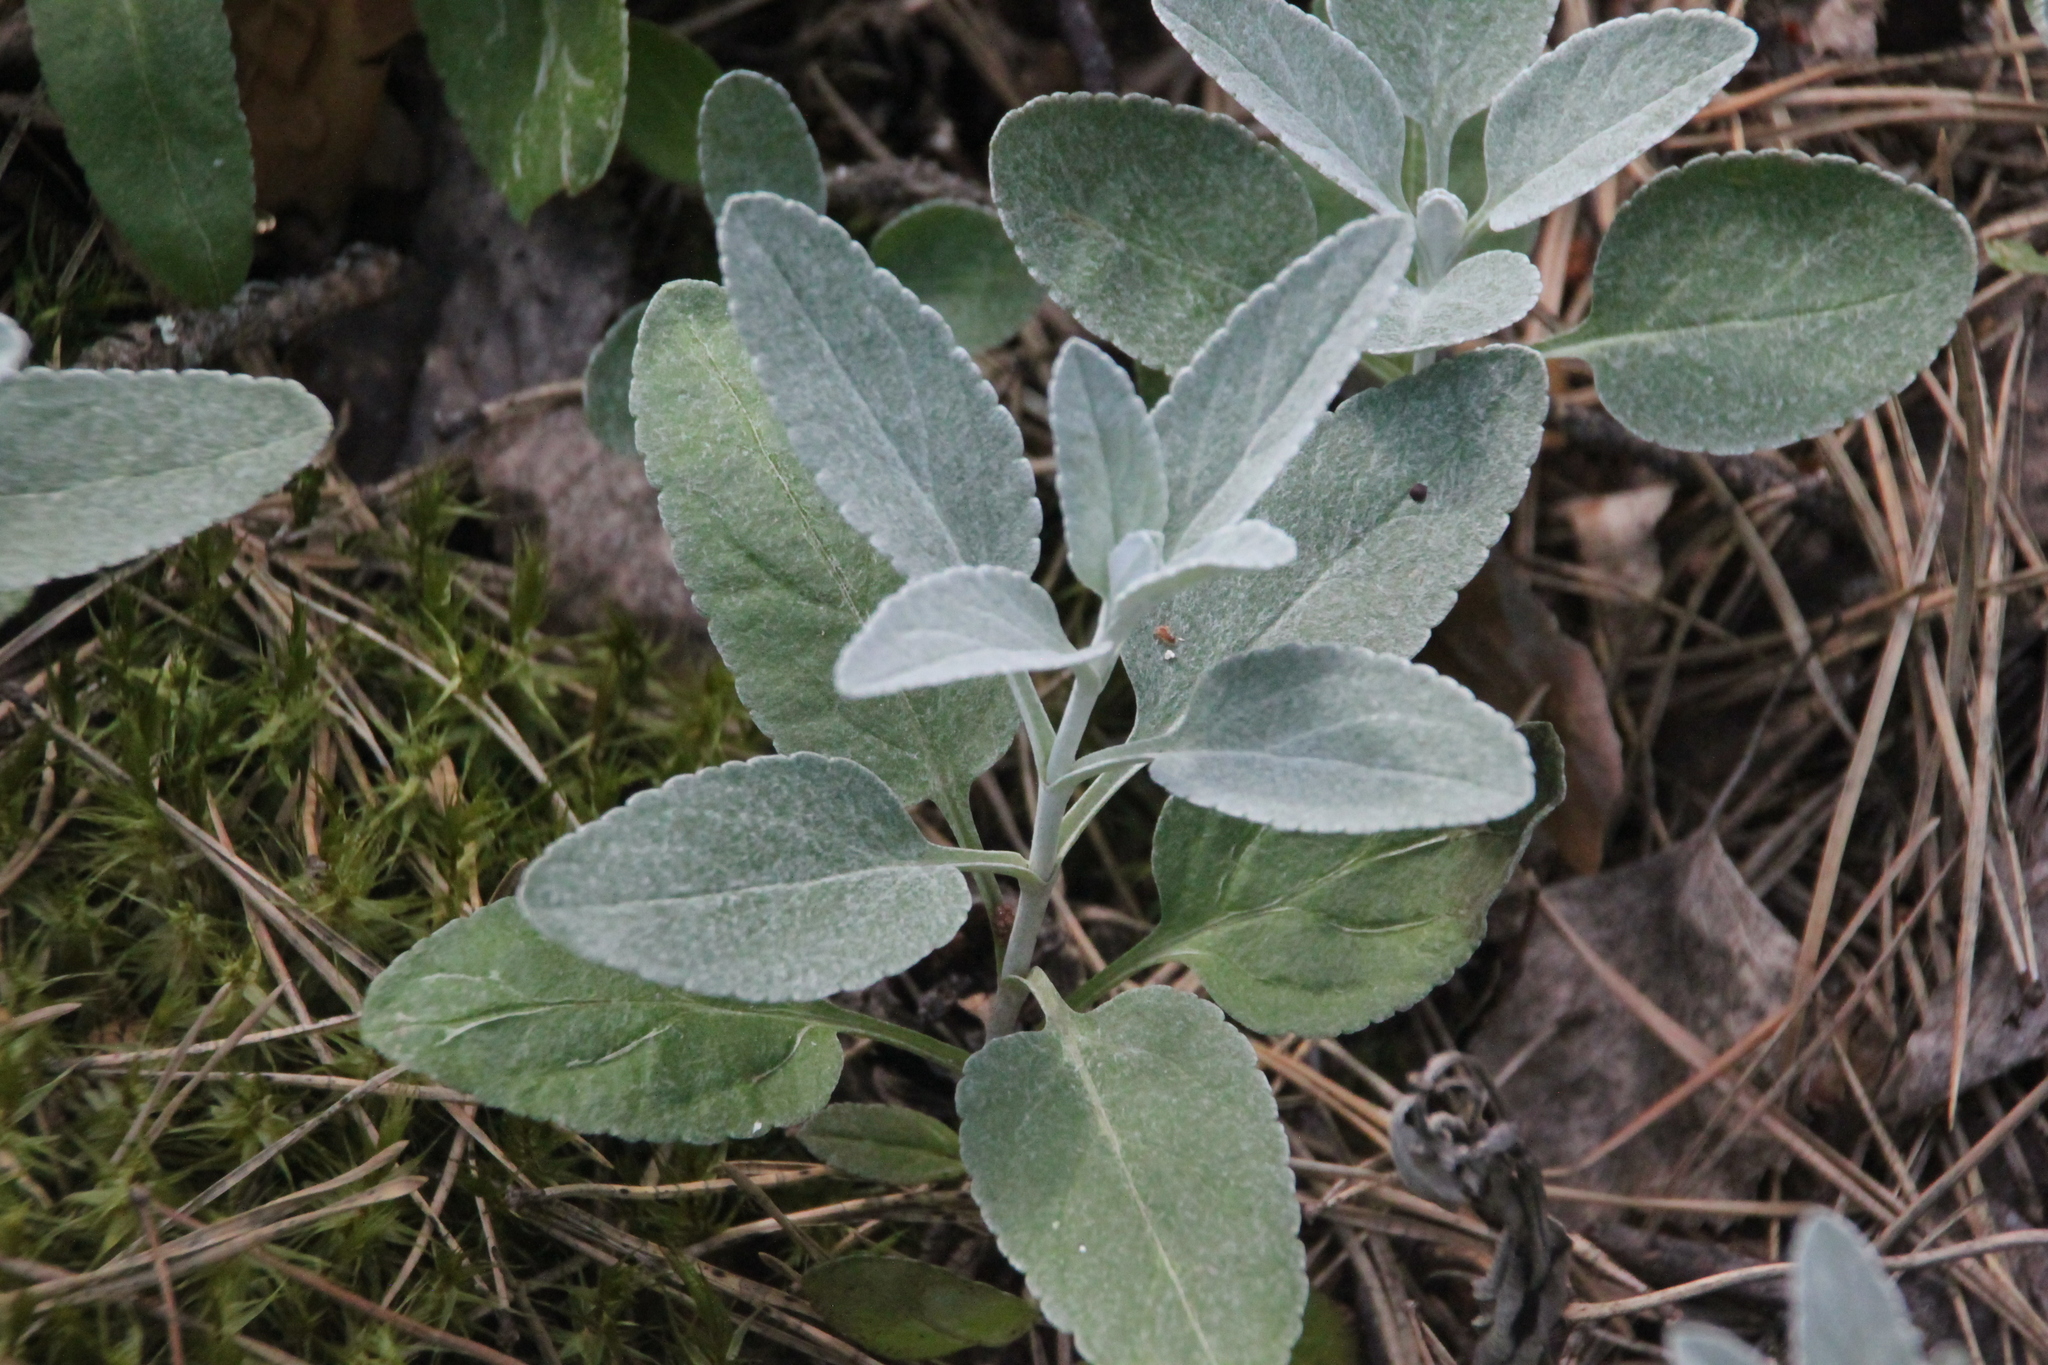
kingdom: Plantae
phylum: Tracheophyta
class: Magnoliopsida
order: Lamiales
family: Plantaginaceae
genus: Veronica
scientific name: Veronica incana
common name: Silver speedwell
